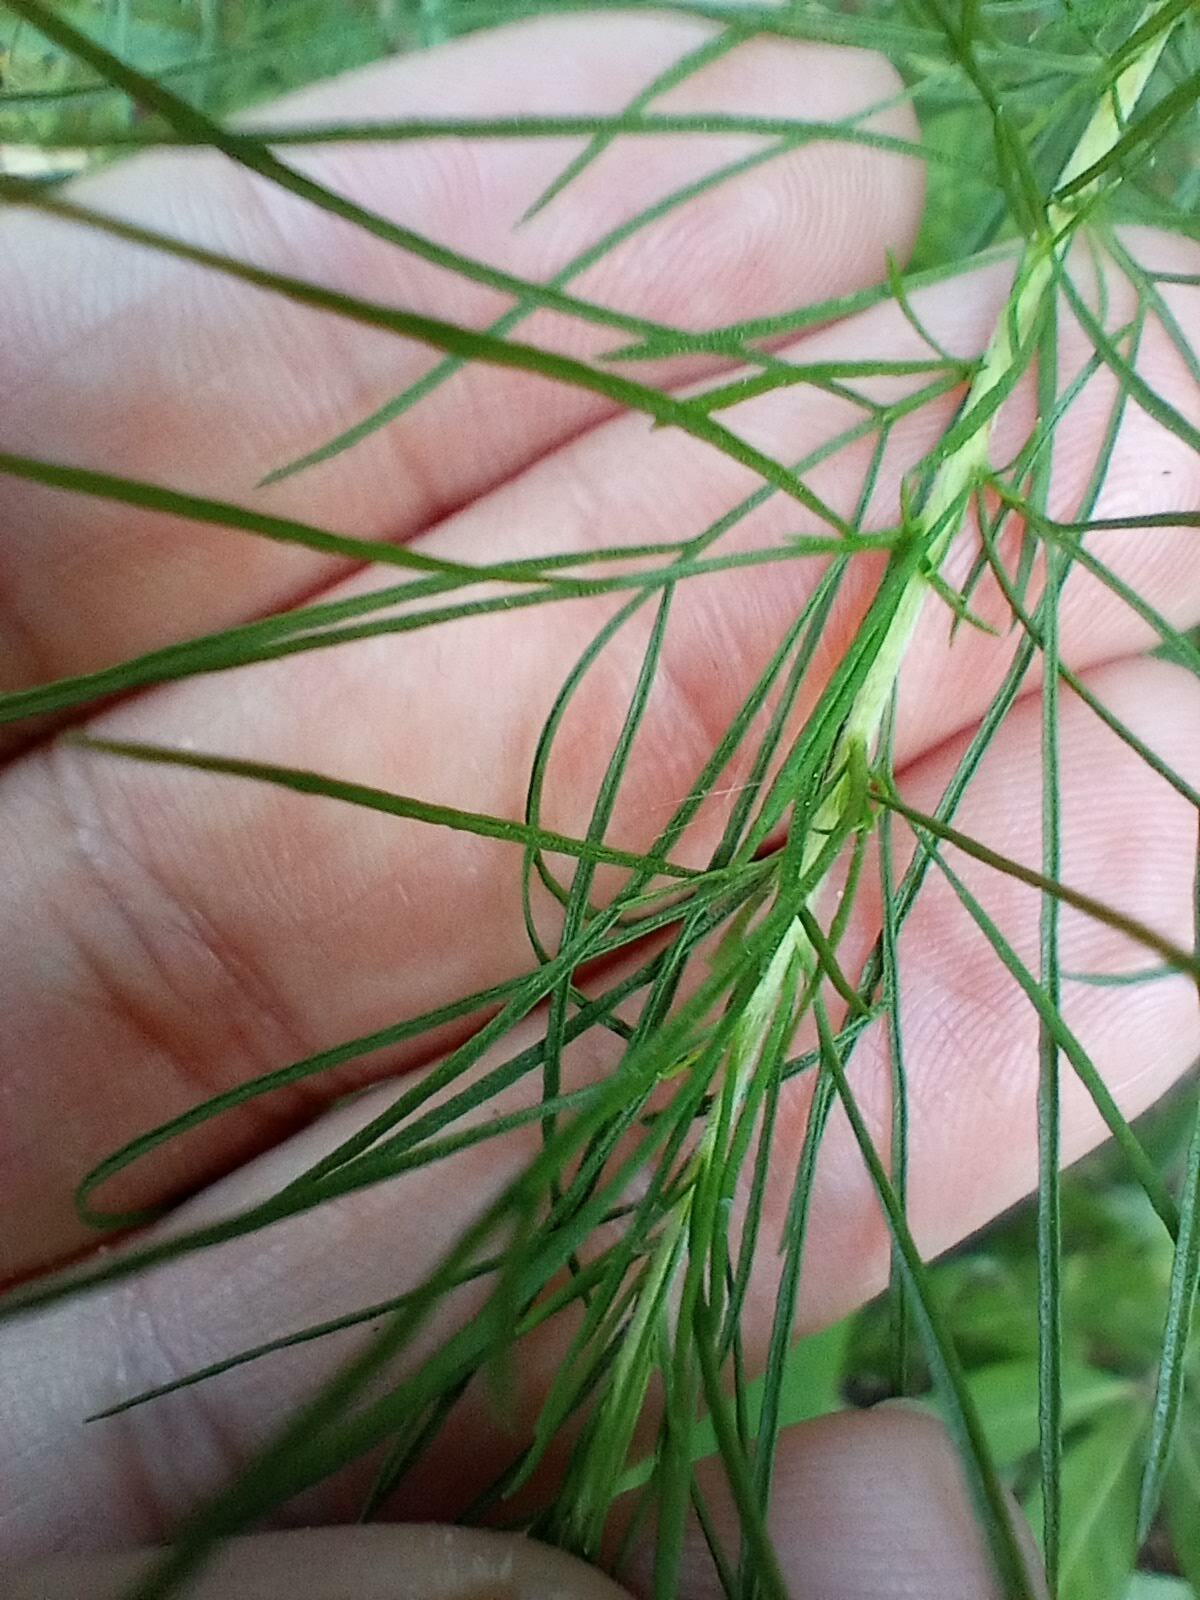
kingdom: Plantae
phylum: Tracheophyta
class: Magnoliopsida
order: Asterales
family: Asteraceae
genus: Eupatorium
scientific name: Eupatorium capillifolium
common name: Dog-fennel
